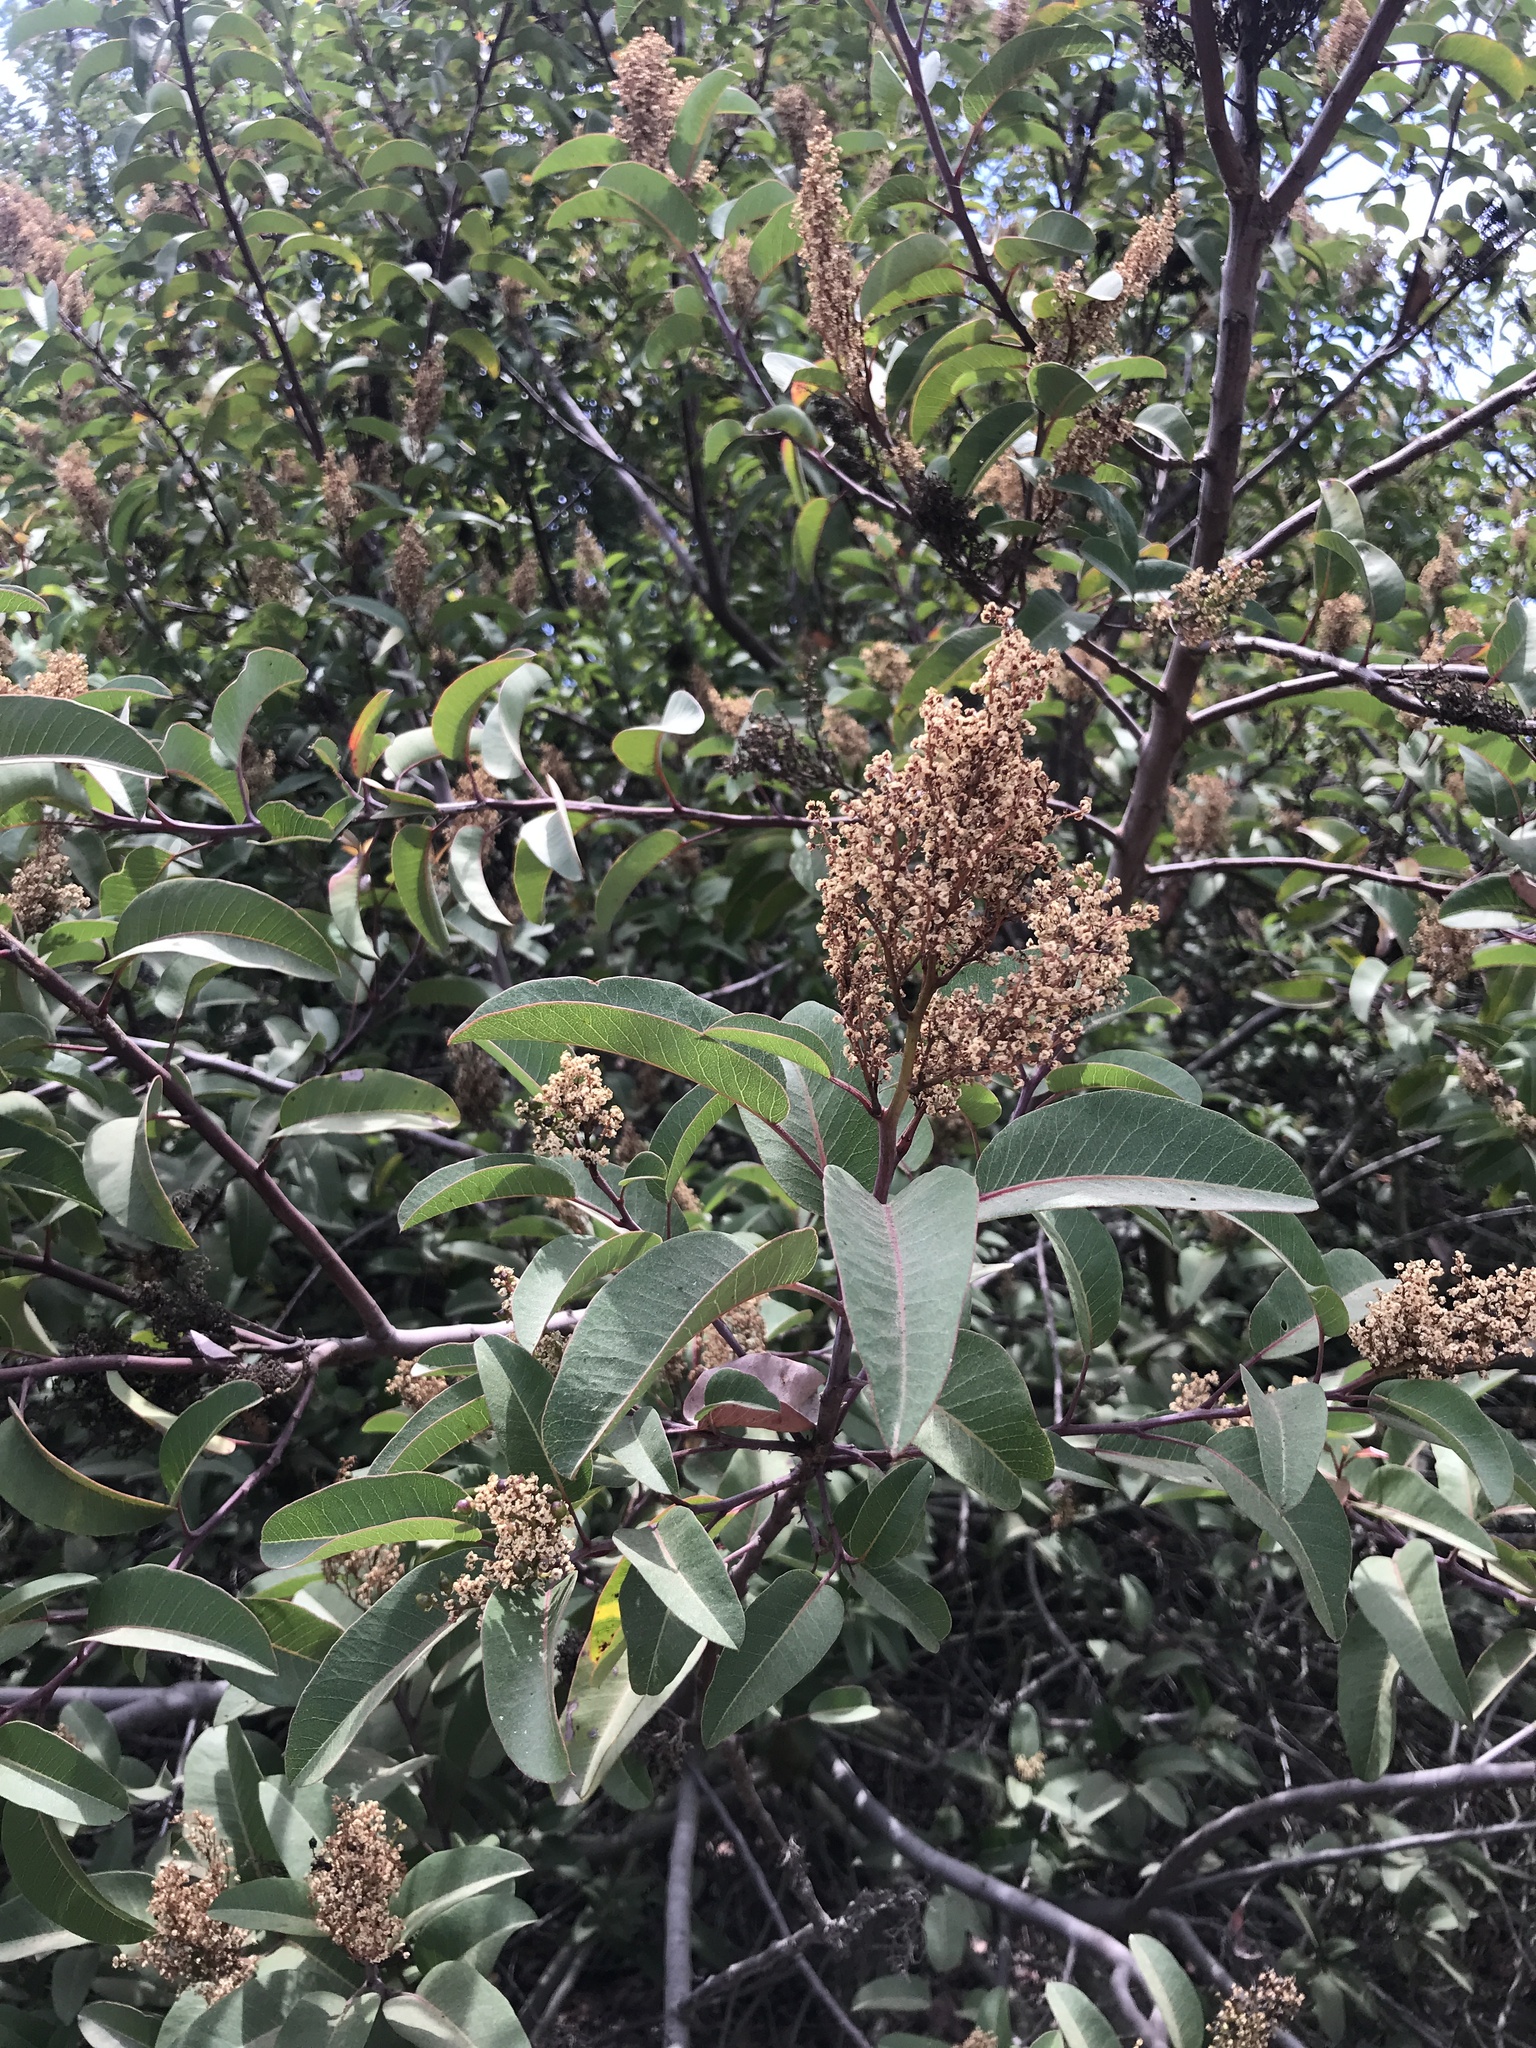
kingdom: Plantae
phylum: Tracheophyta
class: Magnoliopsida
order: Sapindales
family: Anacardiaceae
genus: Malosma
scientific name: Malosma laurina
